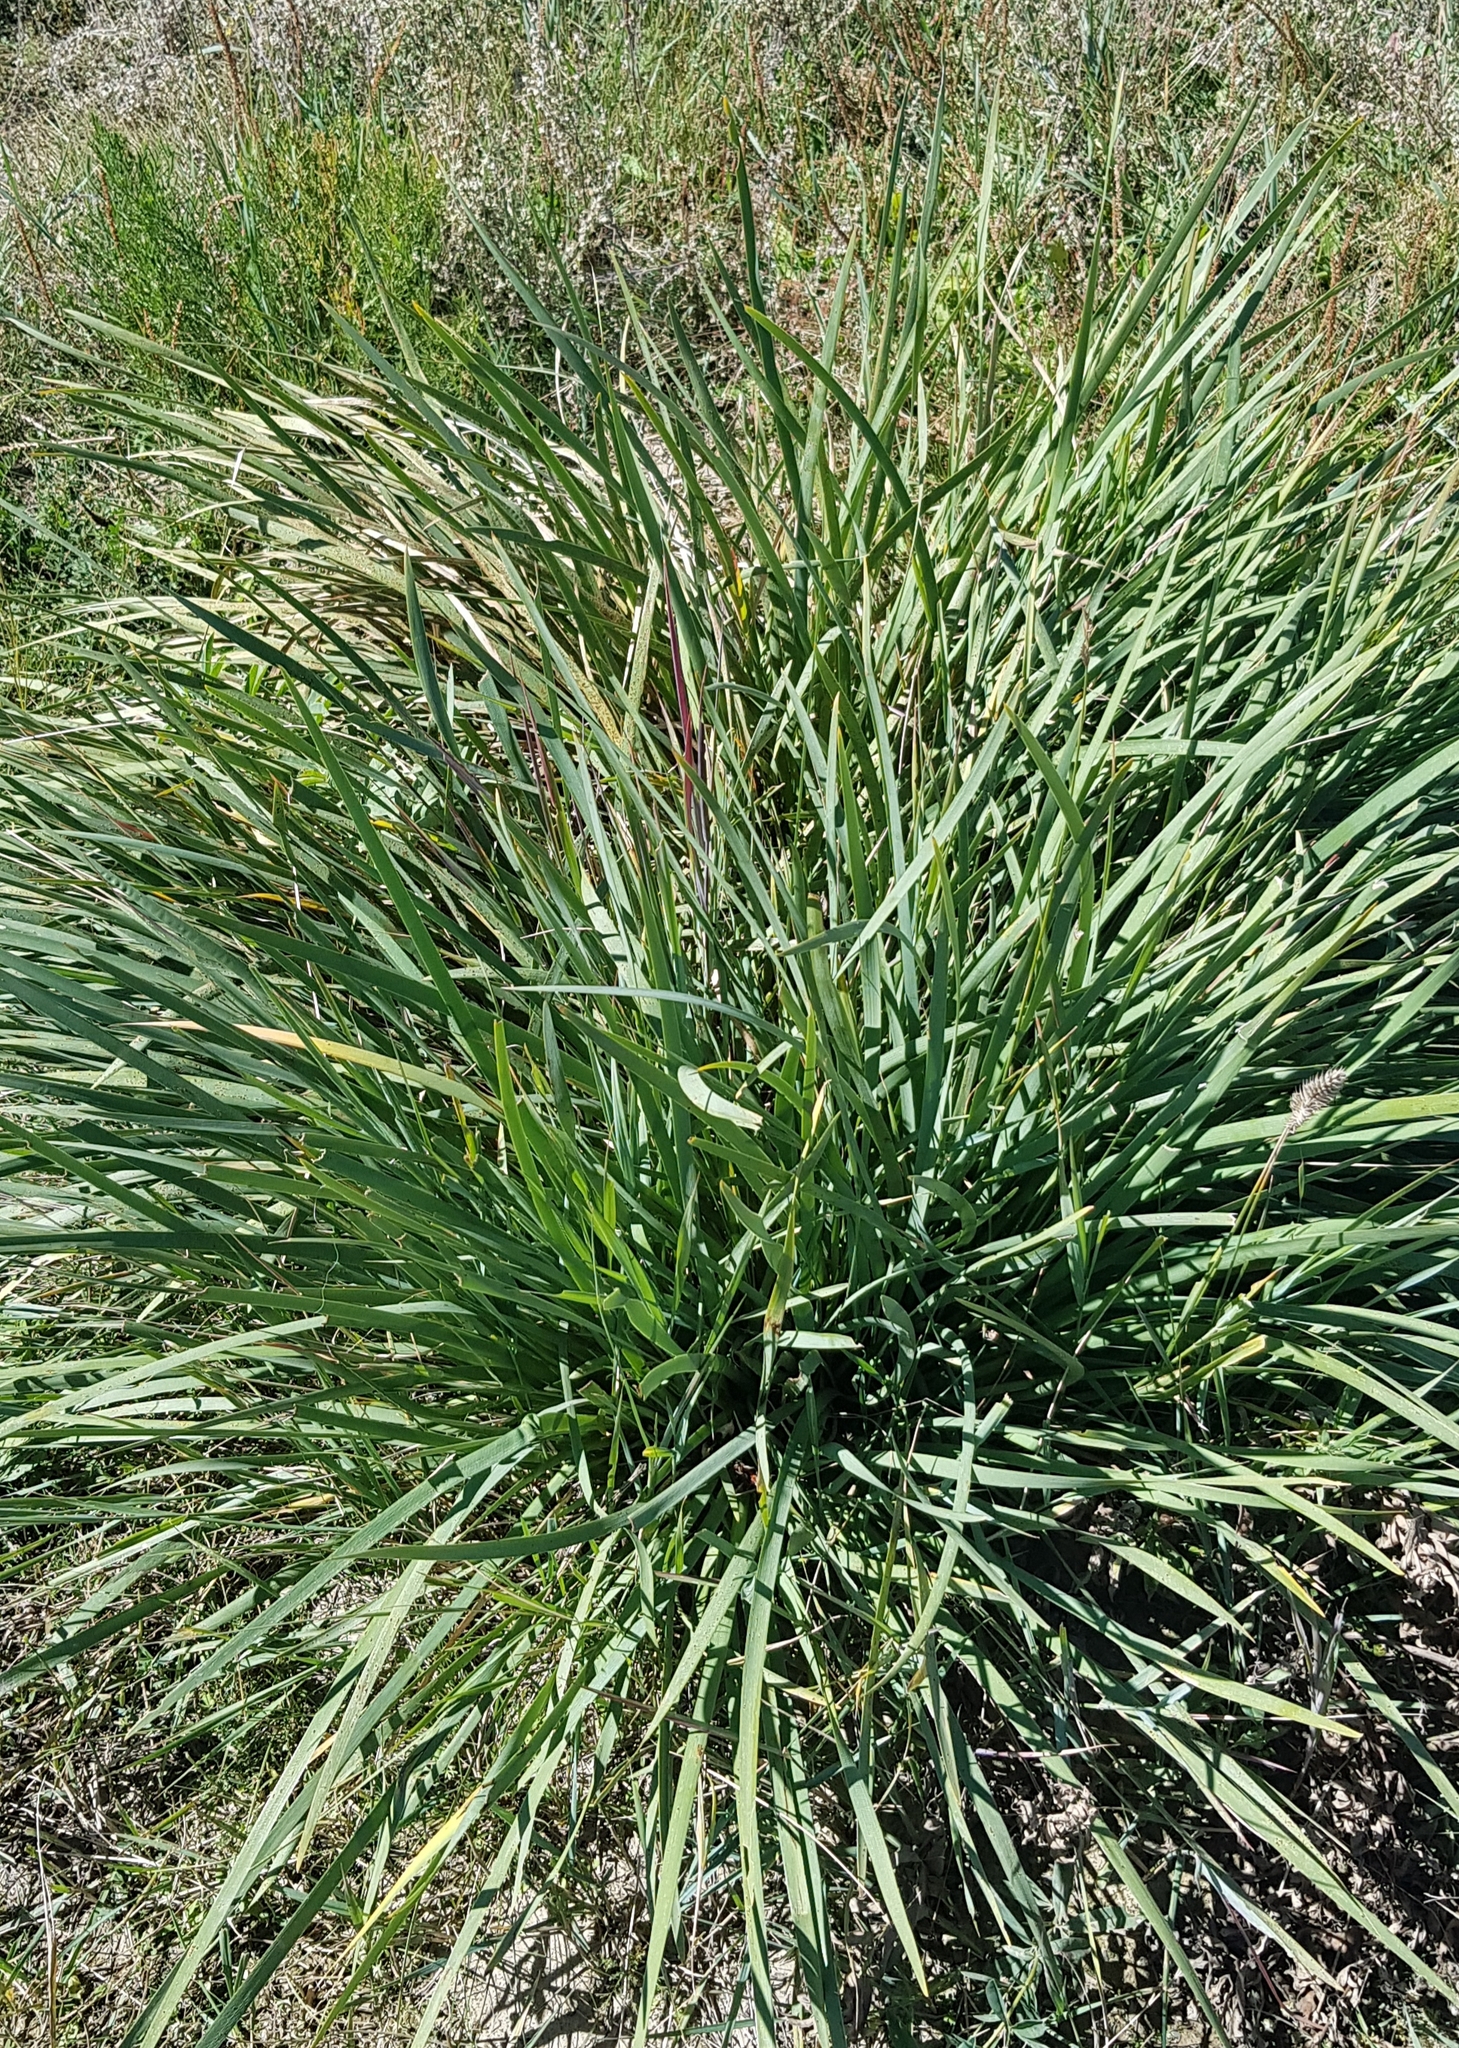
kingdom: Plantae
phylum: Tracheophyta
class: Liliopsida
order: Asparagales
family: Iridaceae
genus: Iris
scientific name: Iris lactea
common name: White-flower chinese iris
